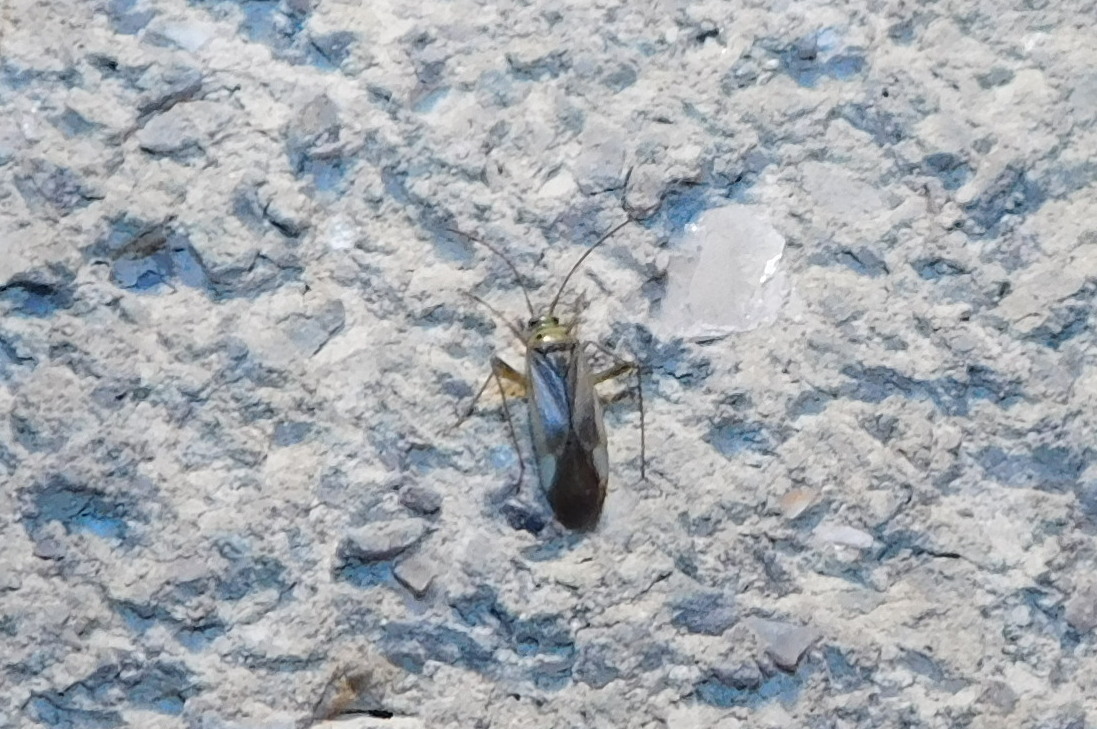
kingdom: Animalia
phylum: Arthropoda
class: Insecta
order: Hemiptera
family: Miridae
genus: Adelphocoris
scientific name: Adelphocoris lineolatus
